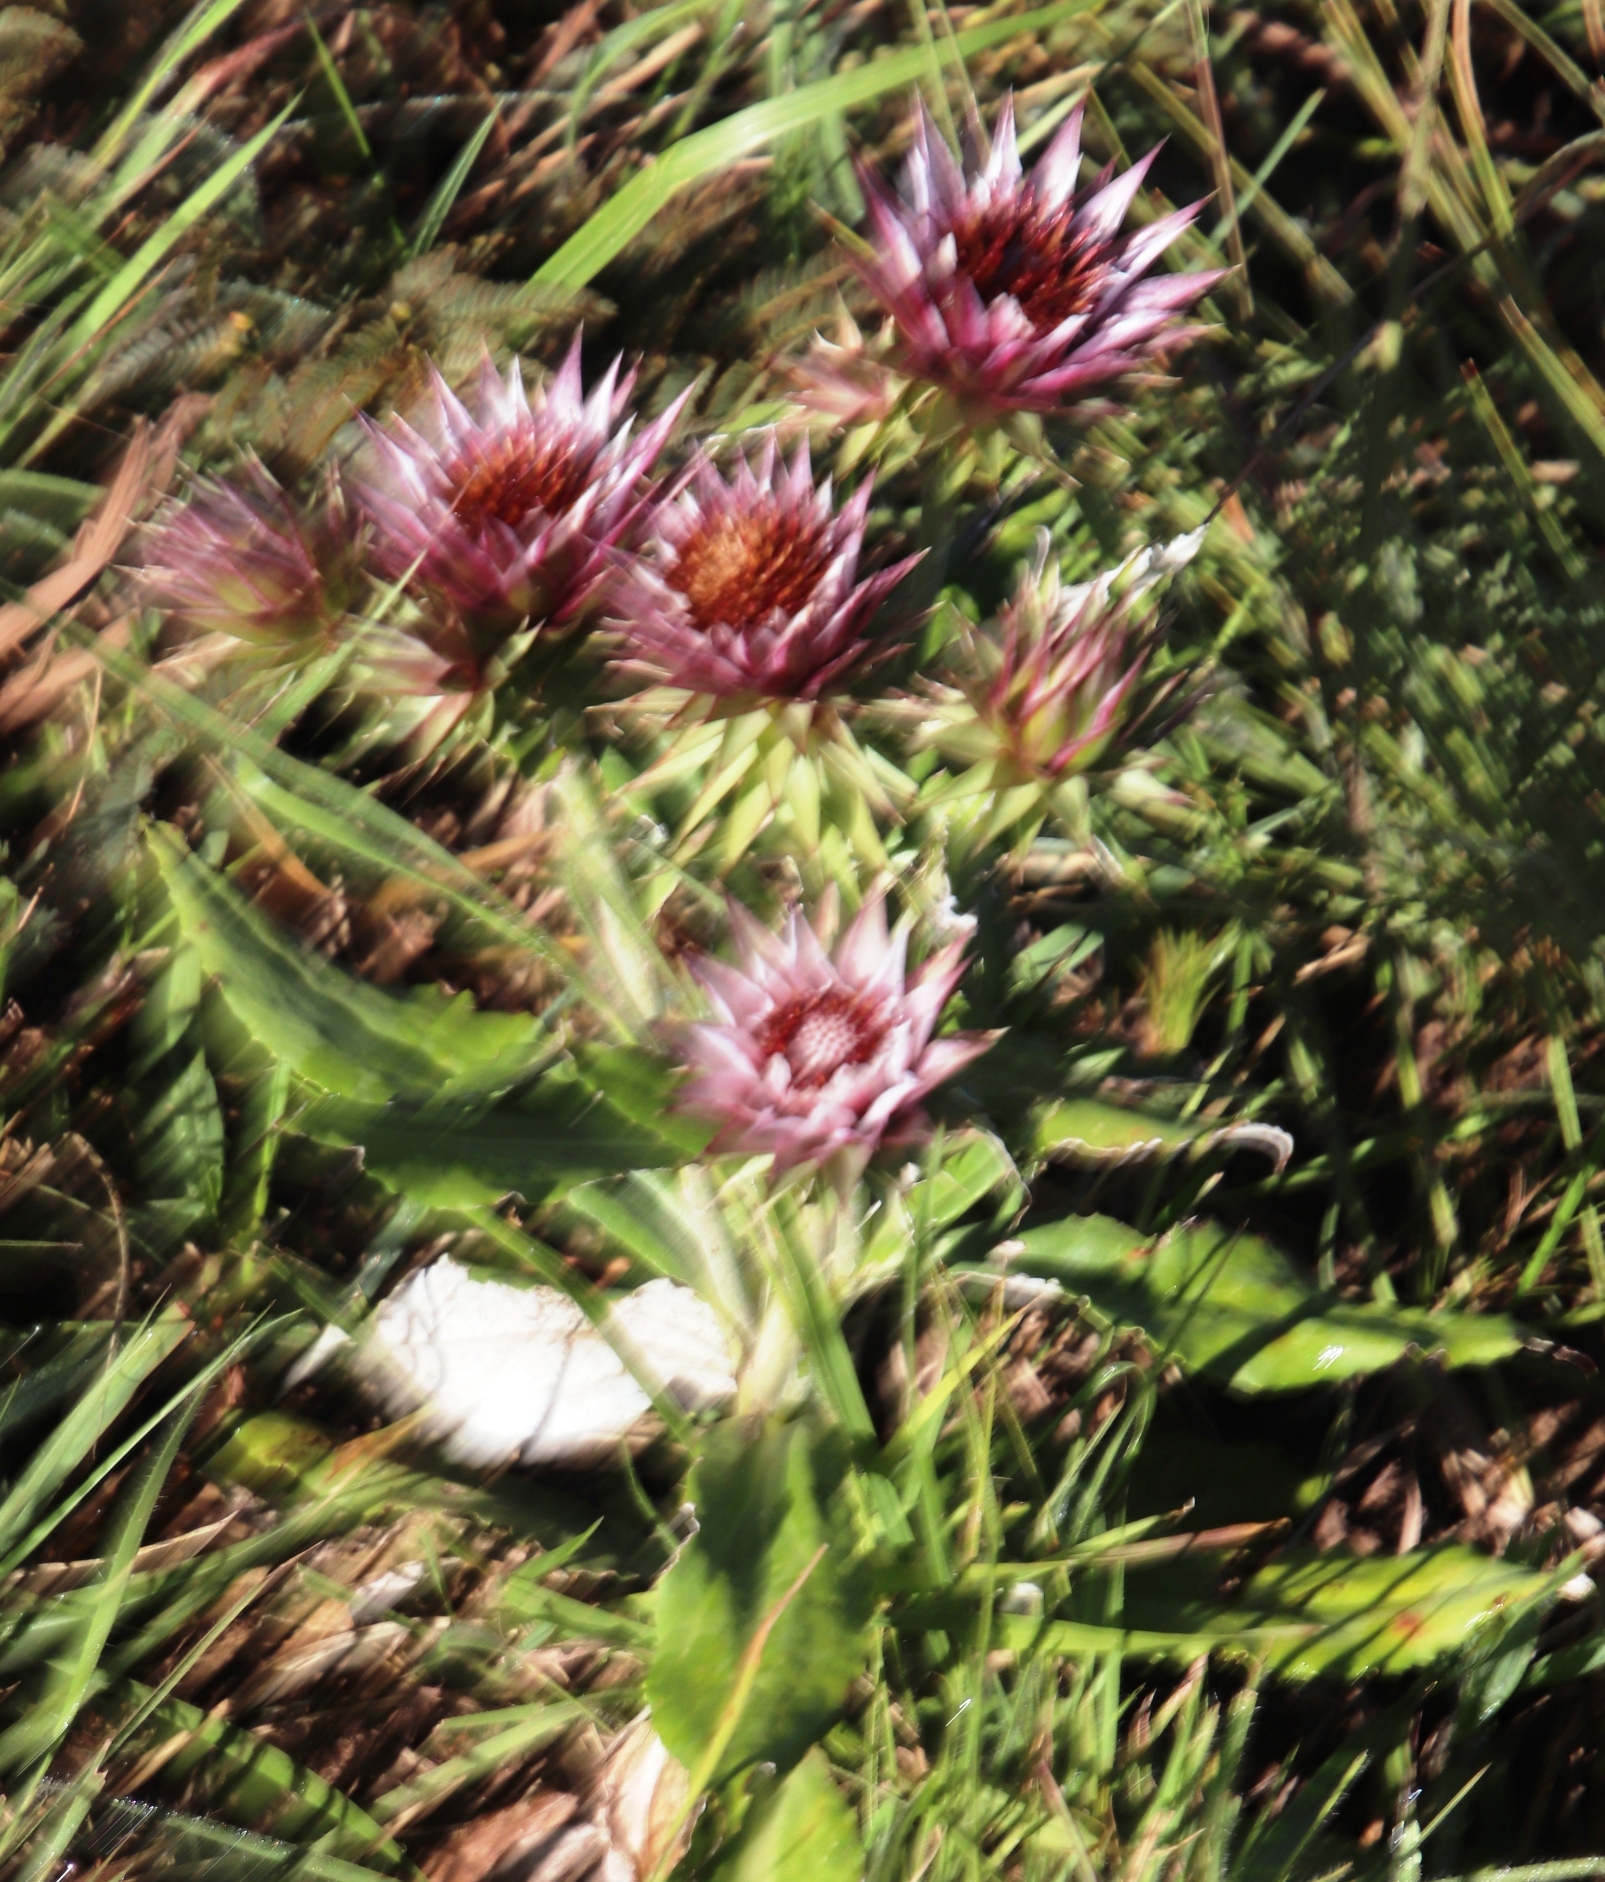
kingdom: Plantae
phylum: Tracheophyta
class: Magnoliopsida
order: Asterales
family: Asteraceae
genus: Macledium
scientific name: Macledium zeyheri
